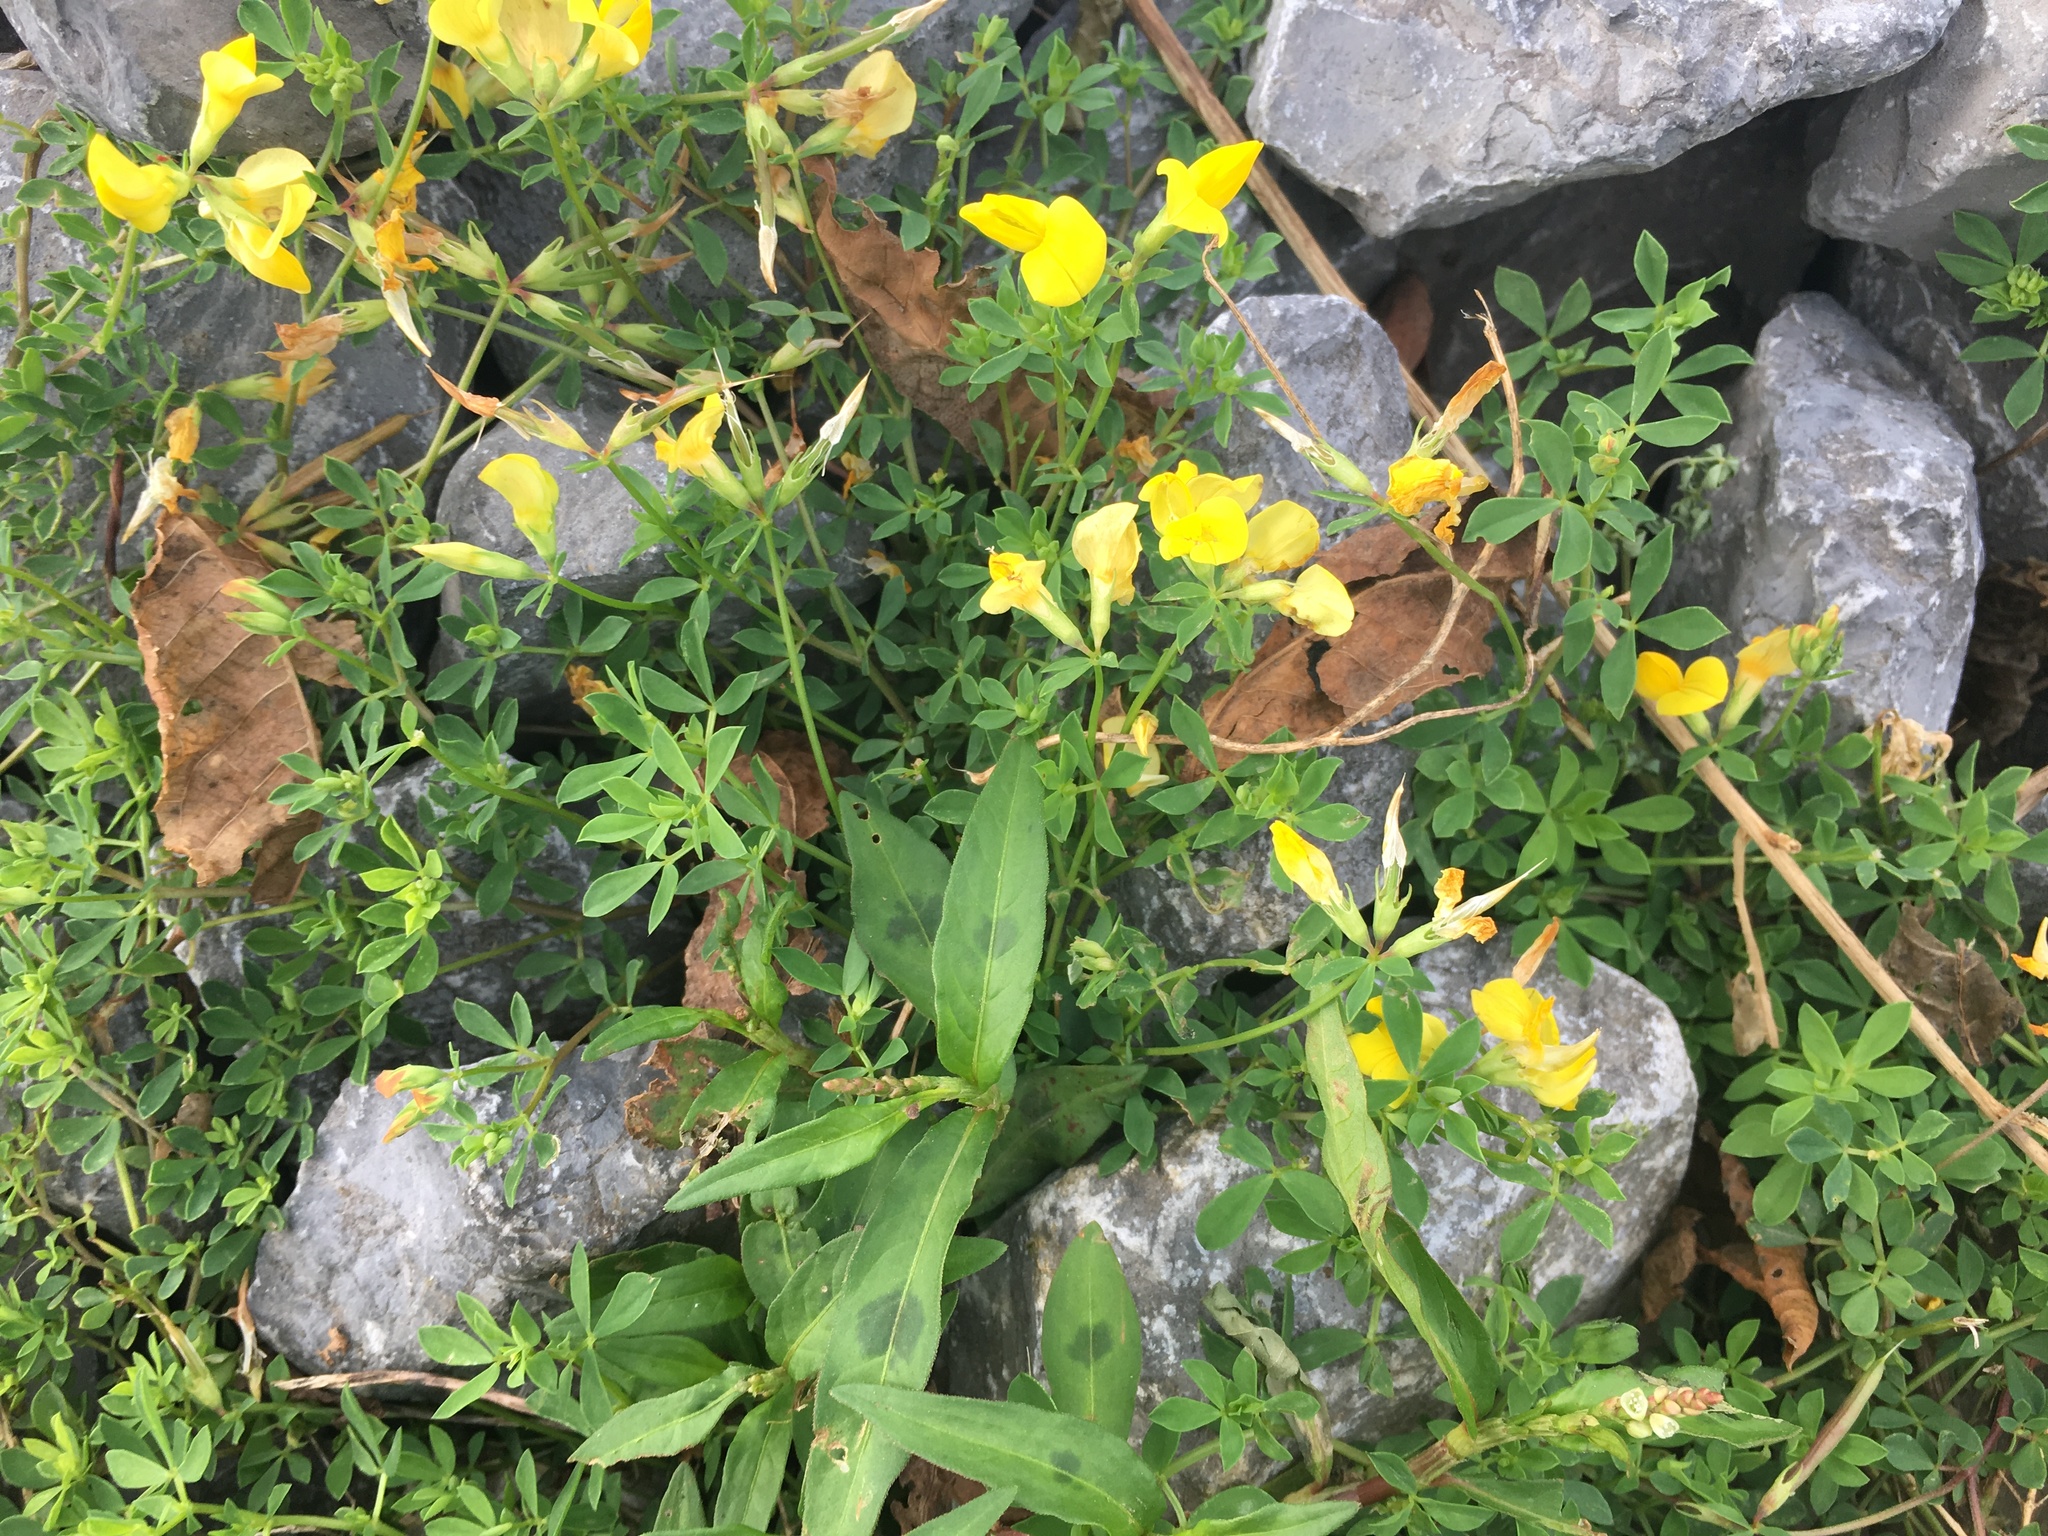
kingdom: Plantae
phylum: Tracheophyta
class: Magnoliopsida
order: Fabales
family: Fabaceae
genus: Lotus
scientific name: Lotus corniculatus
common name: Common bird's-foot-trefoil
